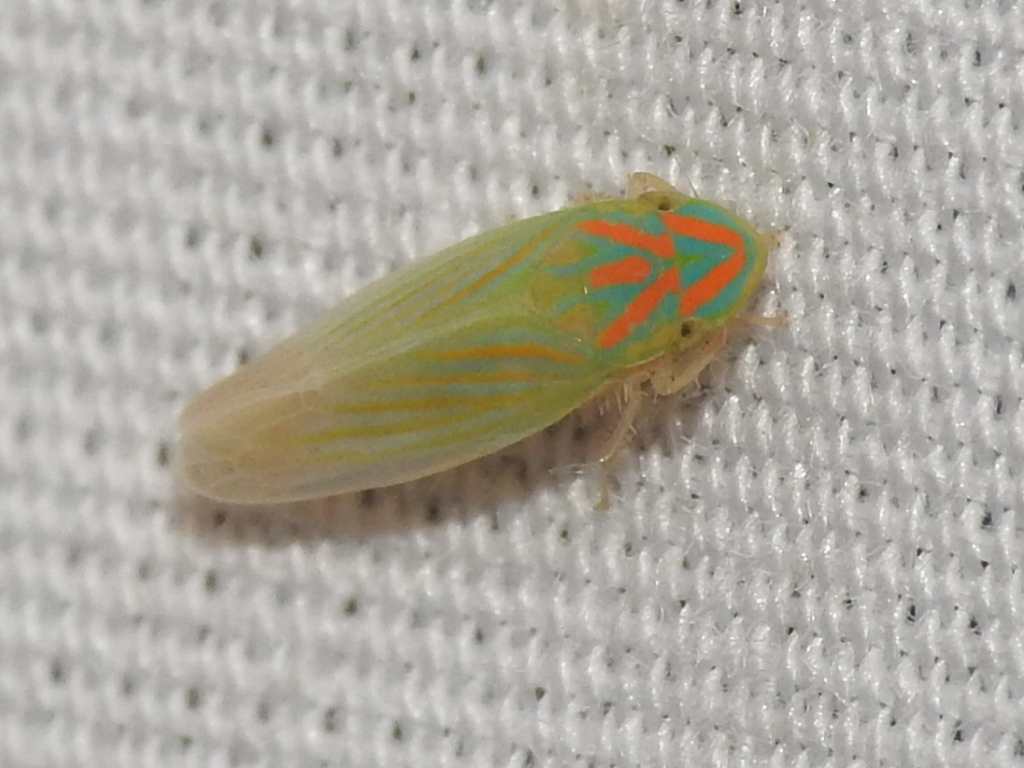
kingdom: Animalia
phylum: Arthropoda
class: Insecta
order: Hemiptera
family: Cicadellidae
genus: Spangbergiella
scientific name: Spangbergiella vulnerata
